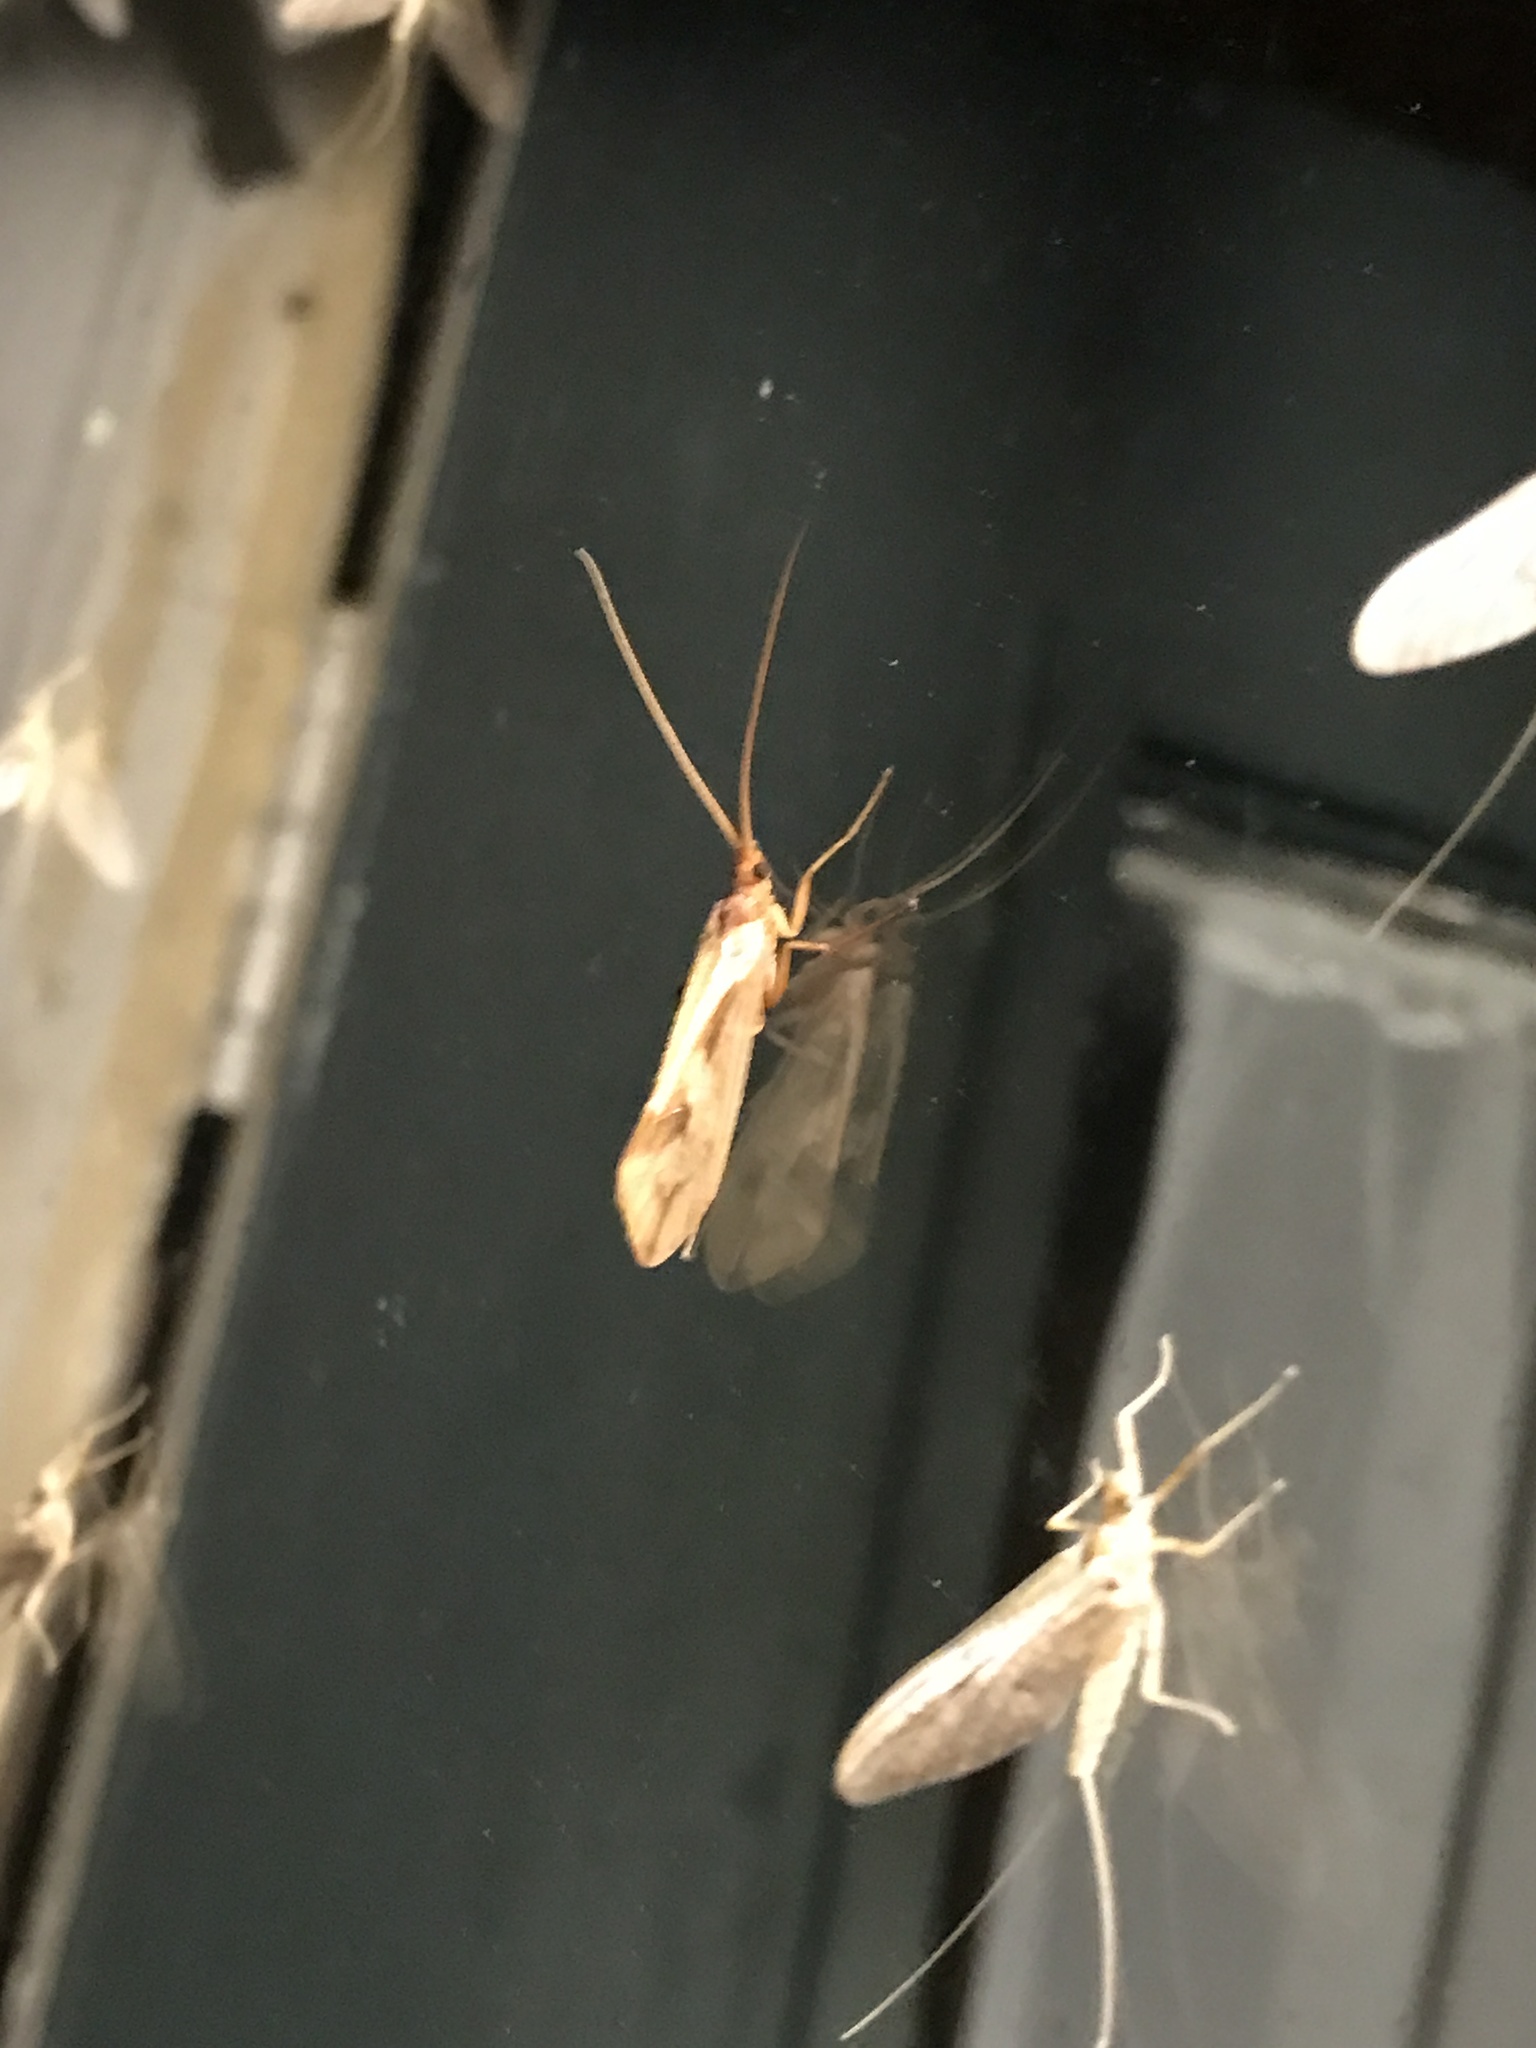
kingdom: Animalia
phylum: Arthropoda
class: Insecta
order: Trichoptera
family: Limnephilidae
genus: Platycentropus
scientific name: Platycentropus radiatus
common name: Chocolate-and-cream sedge
